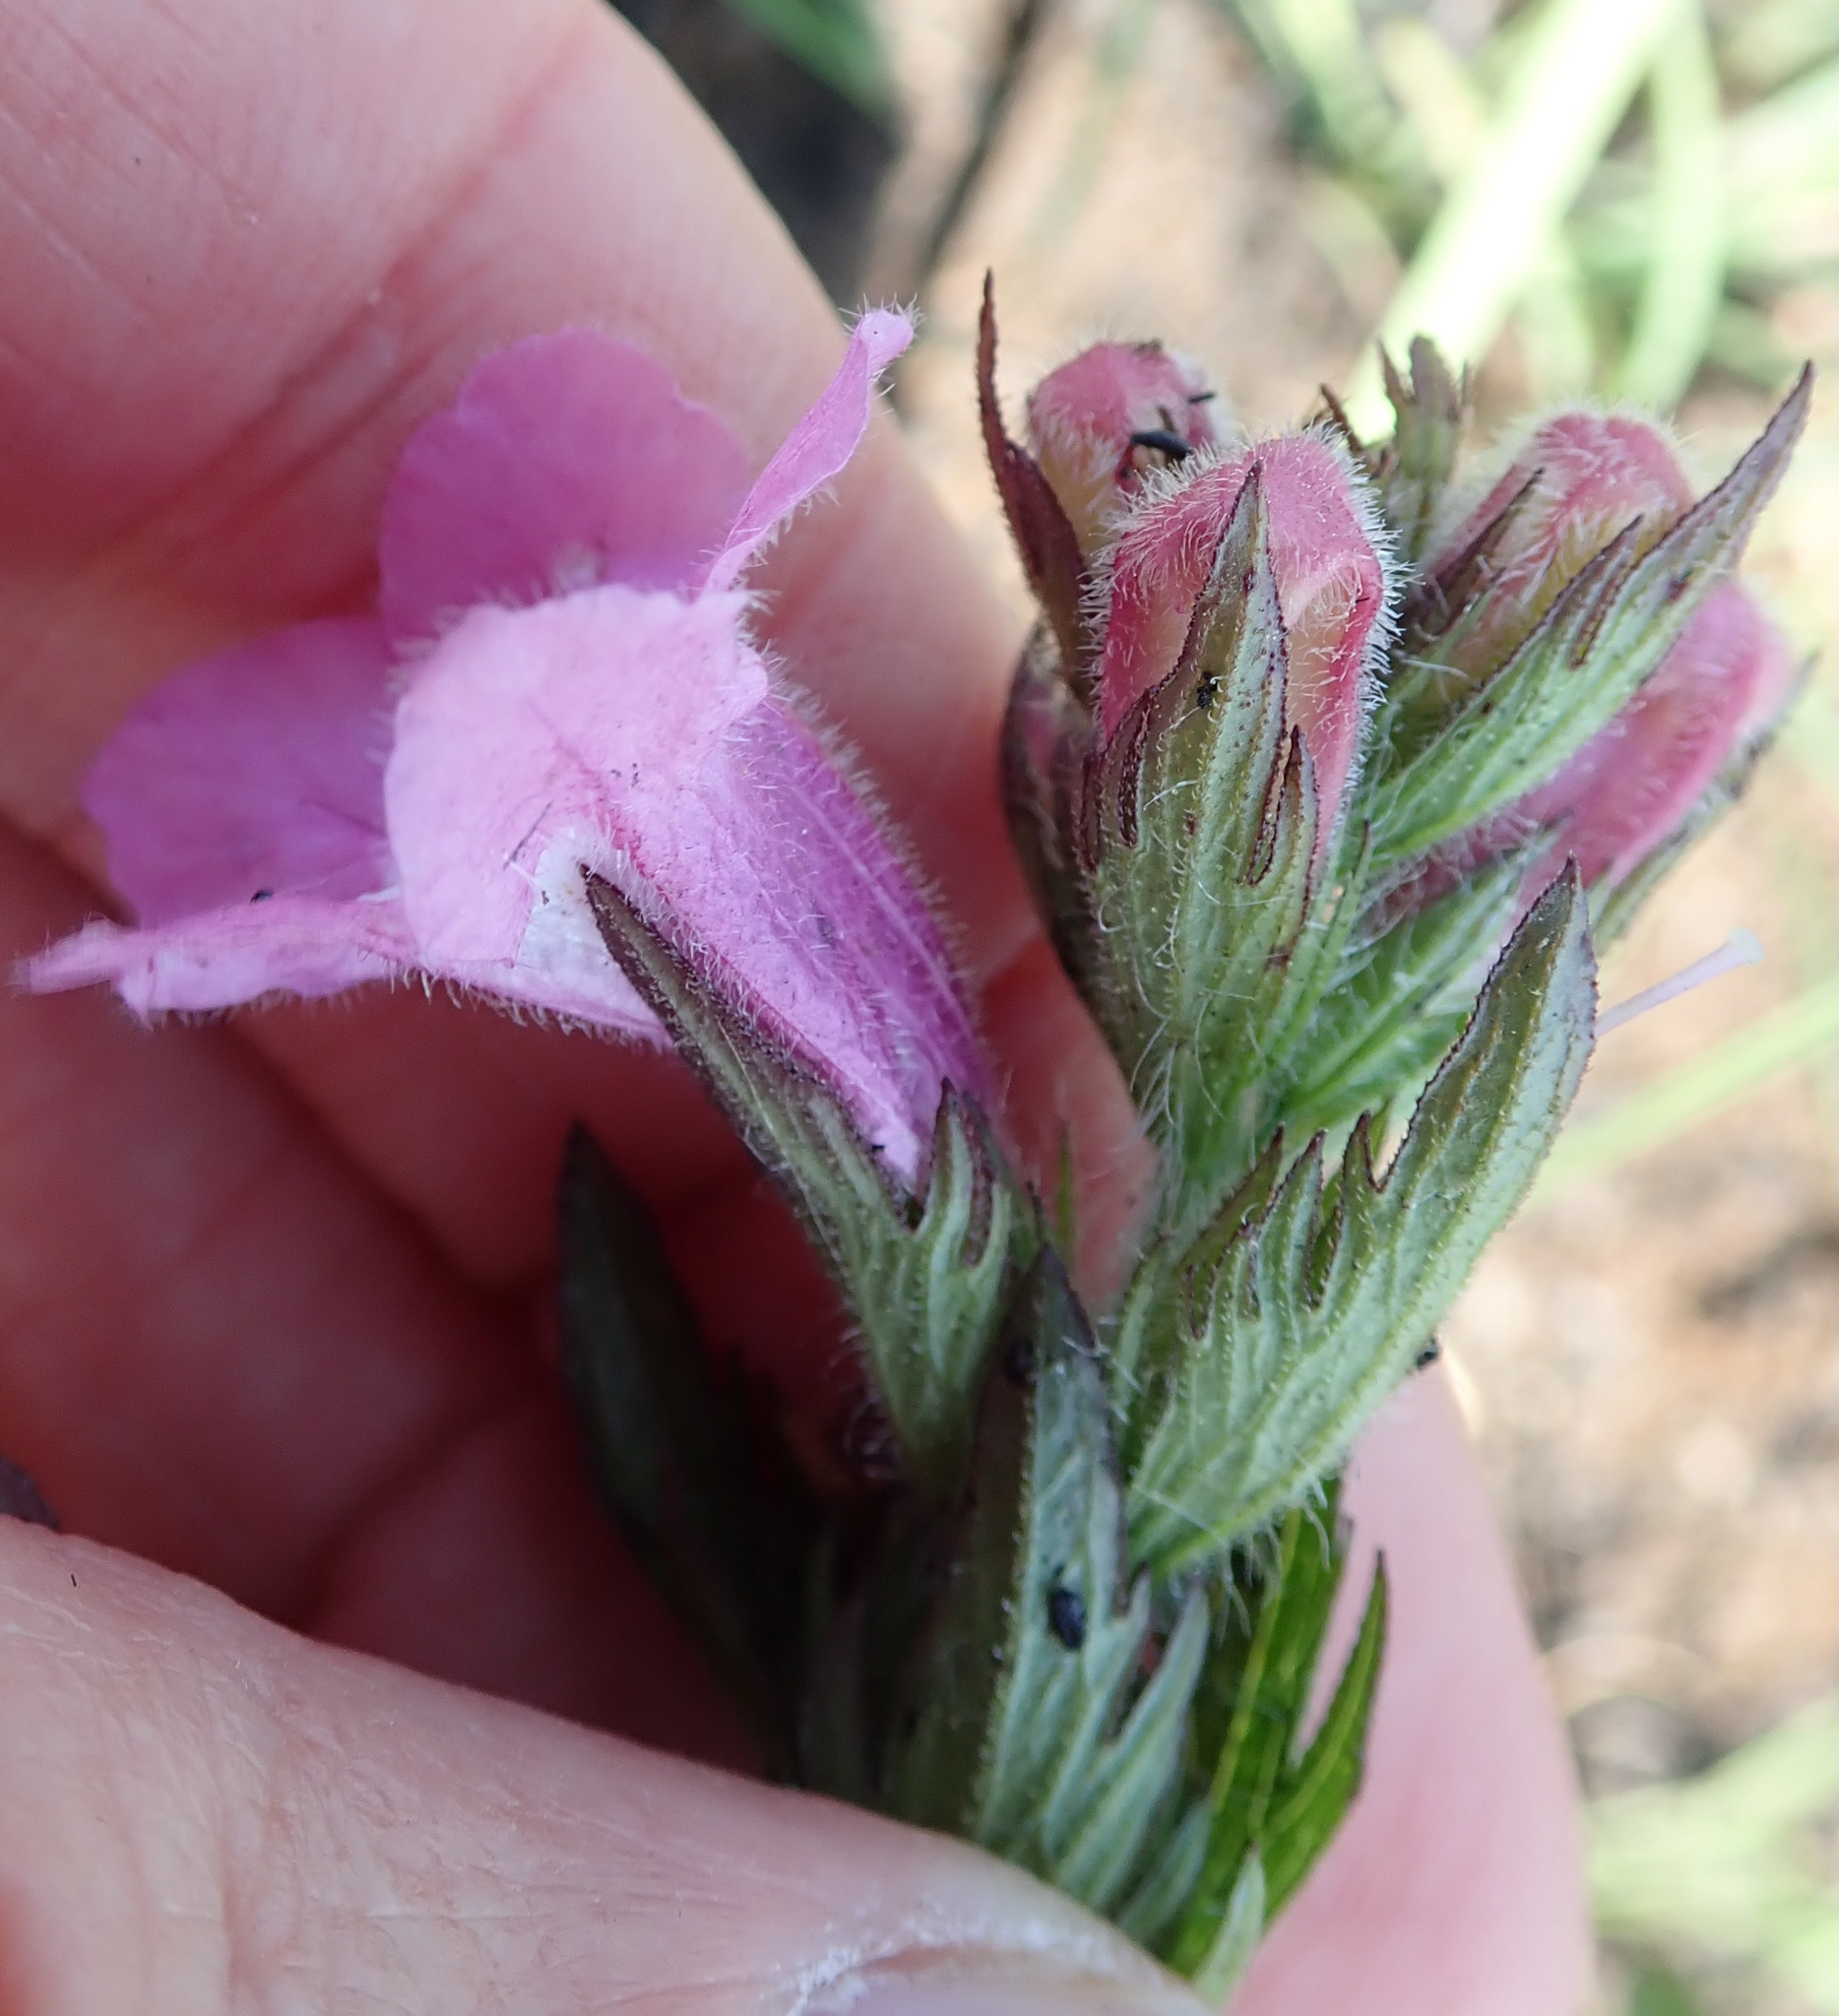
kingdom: Plantae
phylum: Tracheophyta
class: Magnoliopsida
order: Lamiales
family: Orobanchaceae
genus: Graderia
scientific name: Graderia scabra
